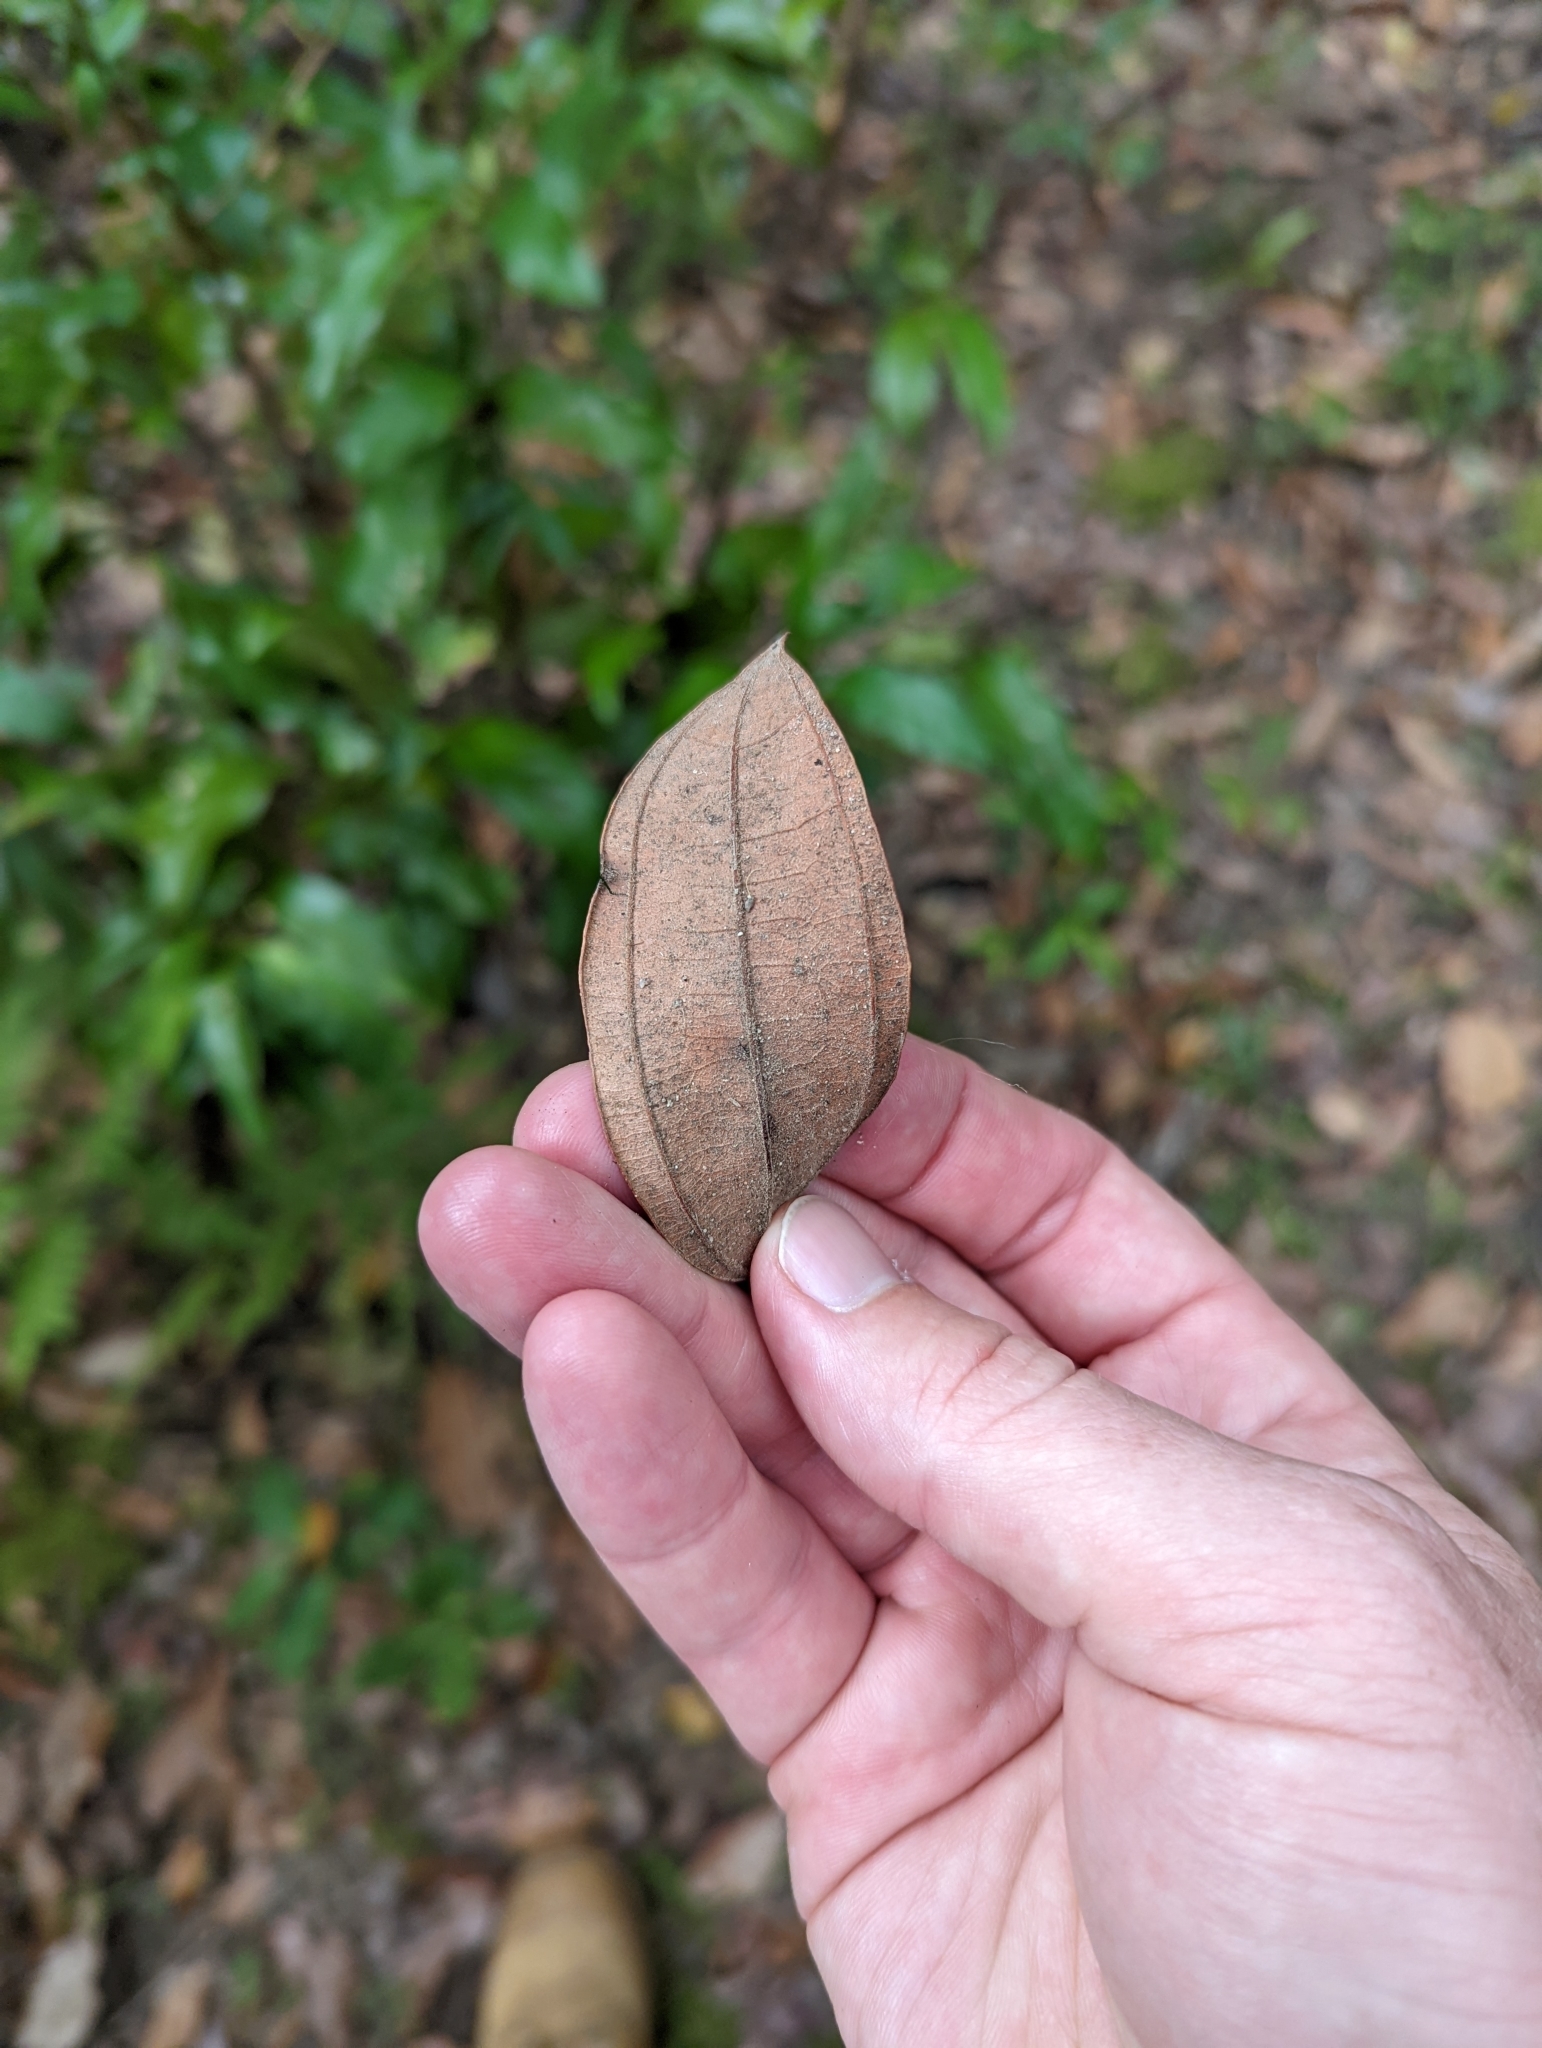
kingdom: Plantae
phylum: Tracheophyta
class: Magnoliopsida
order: Myrtales
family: Myrtaceae
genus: Rhodamnia
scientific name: Rhodamnia rubescens
